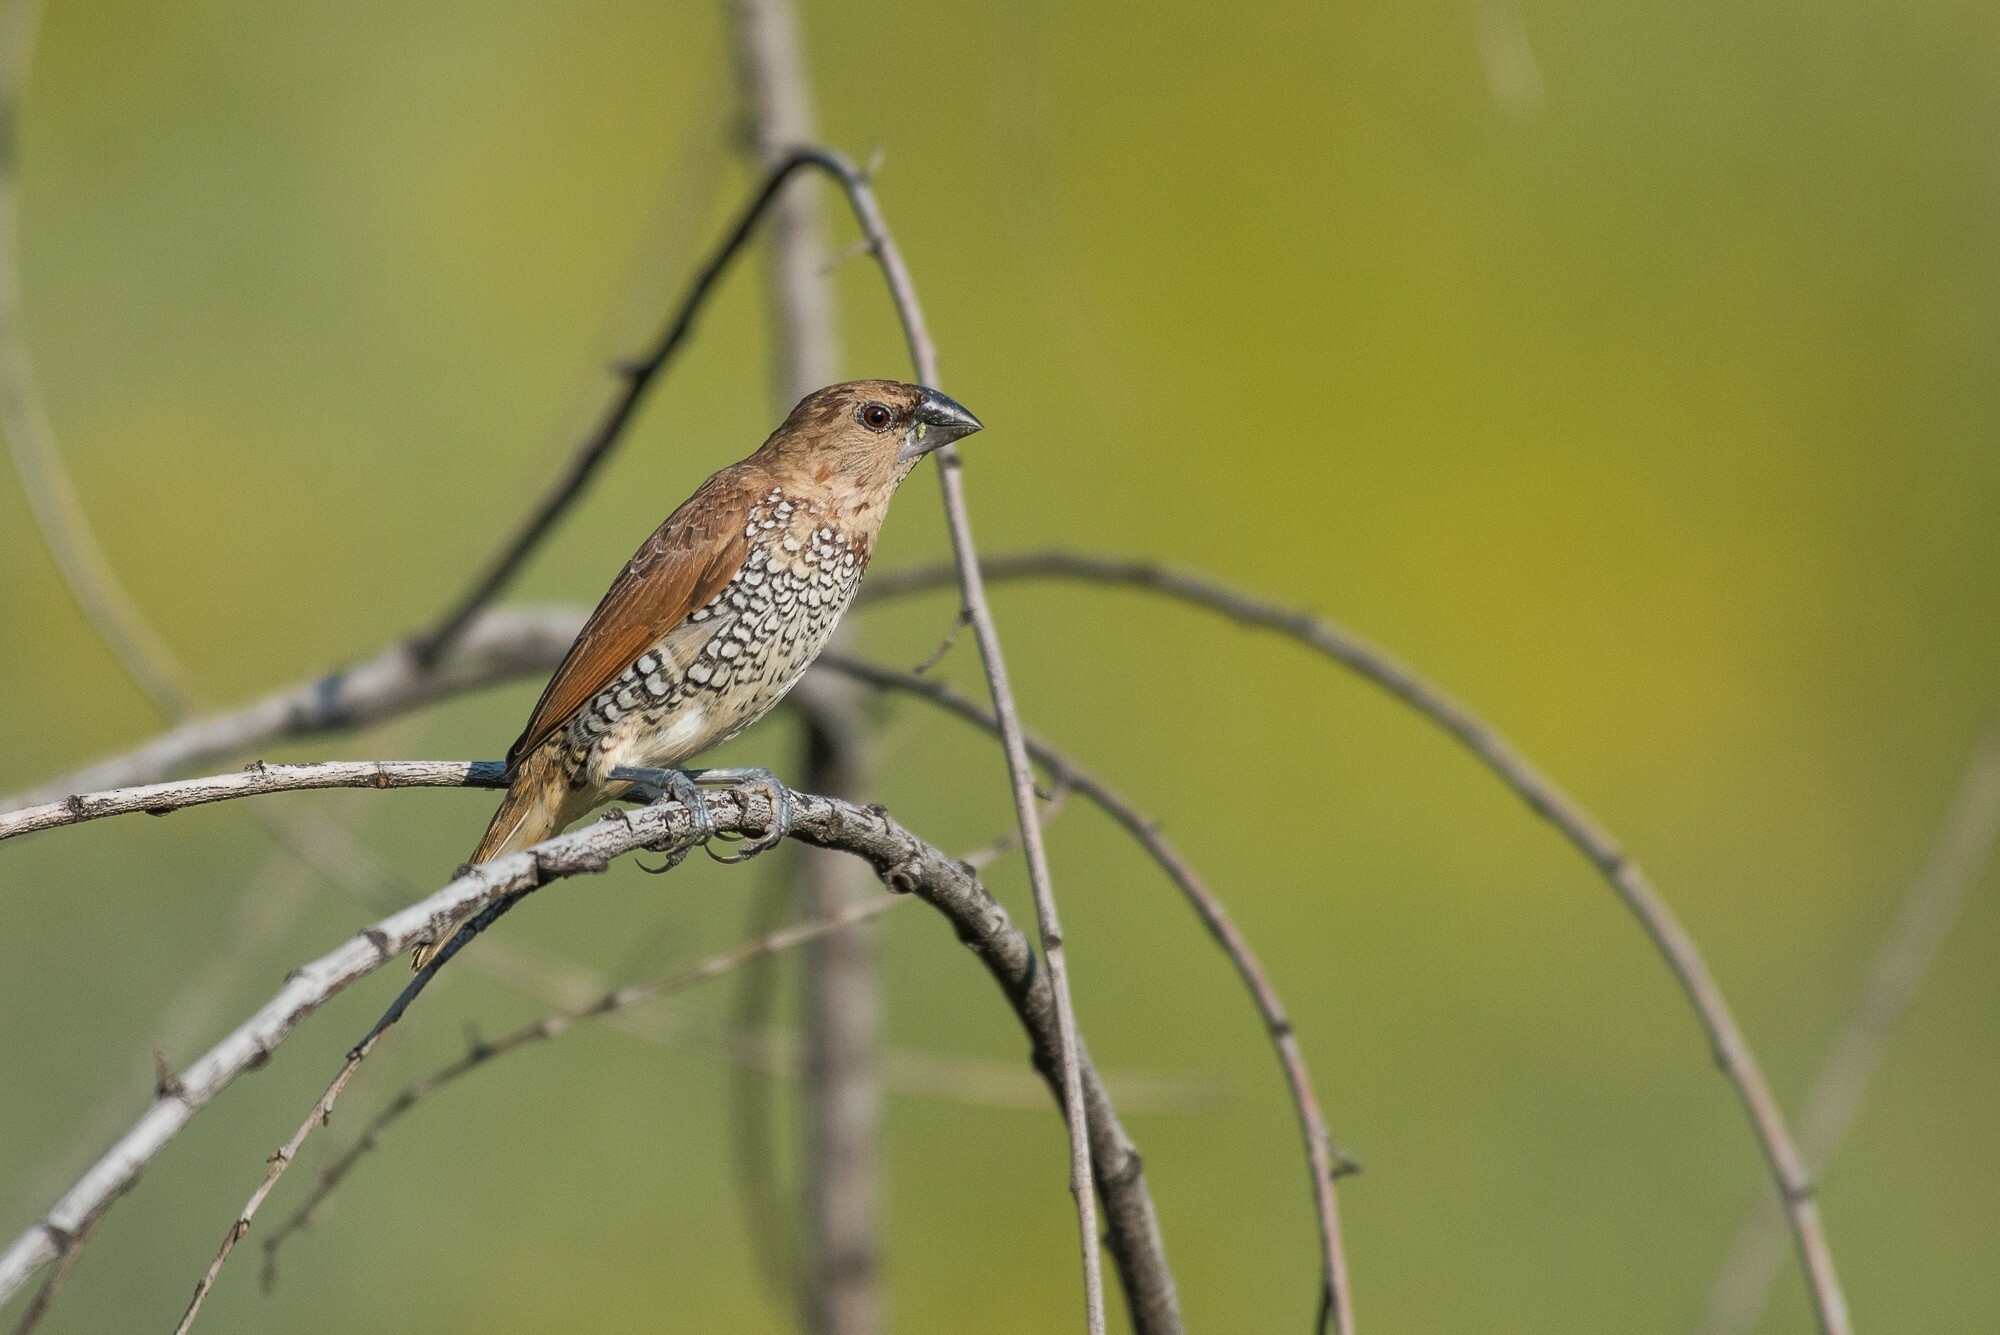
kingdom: Animalia
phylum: Chordata
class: Aves
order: Passeriformes
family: Estrildidae
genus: Lonchura
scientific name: Lonchura punctulata
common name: Scaly-breasted munia
